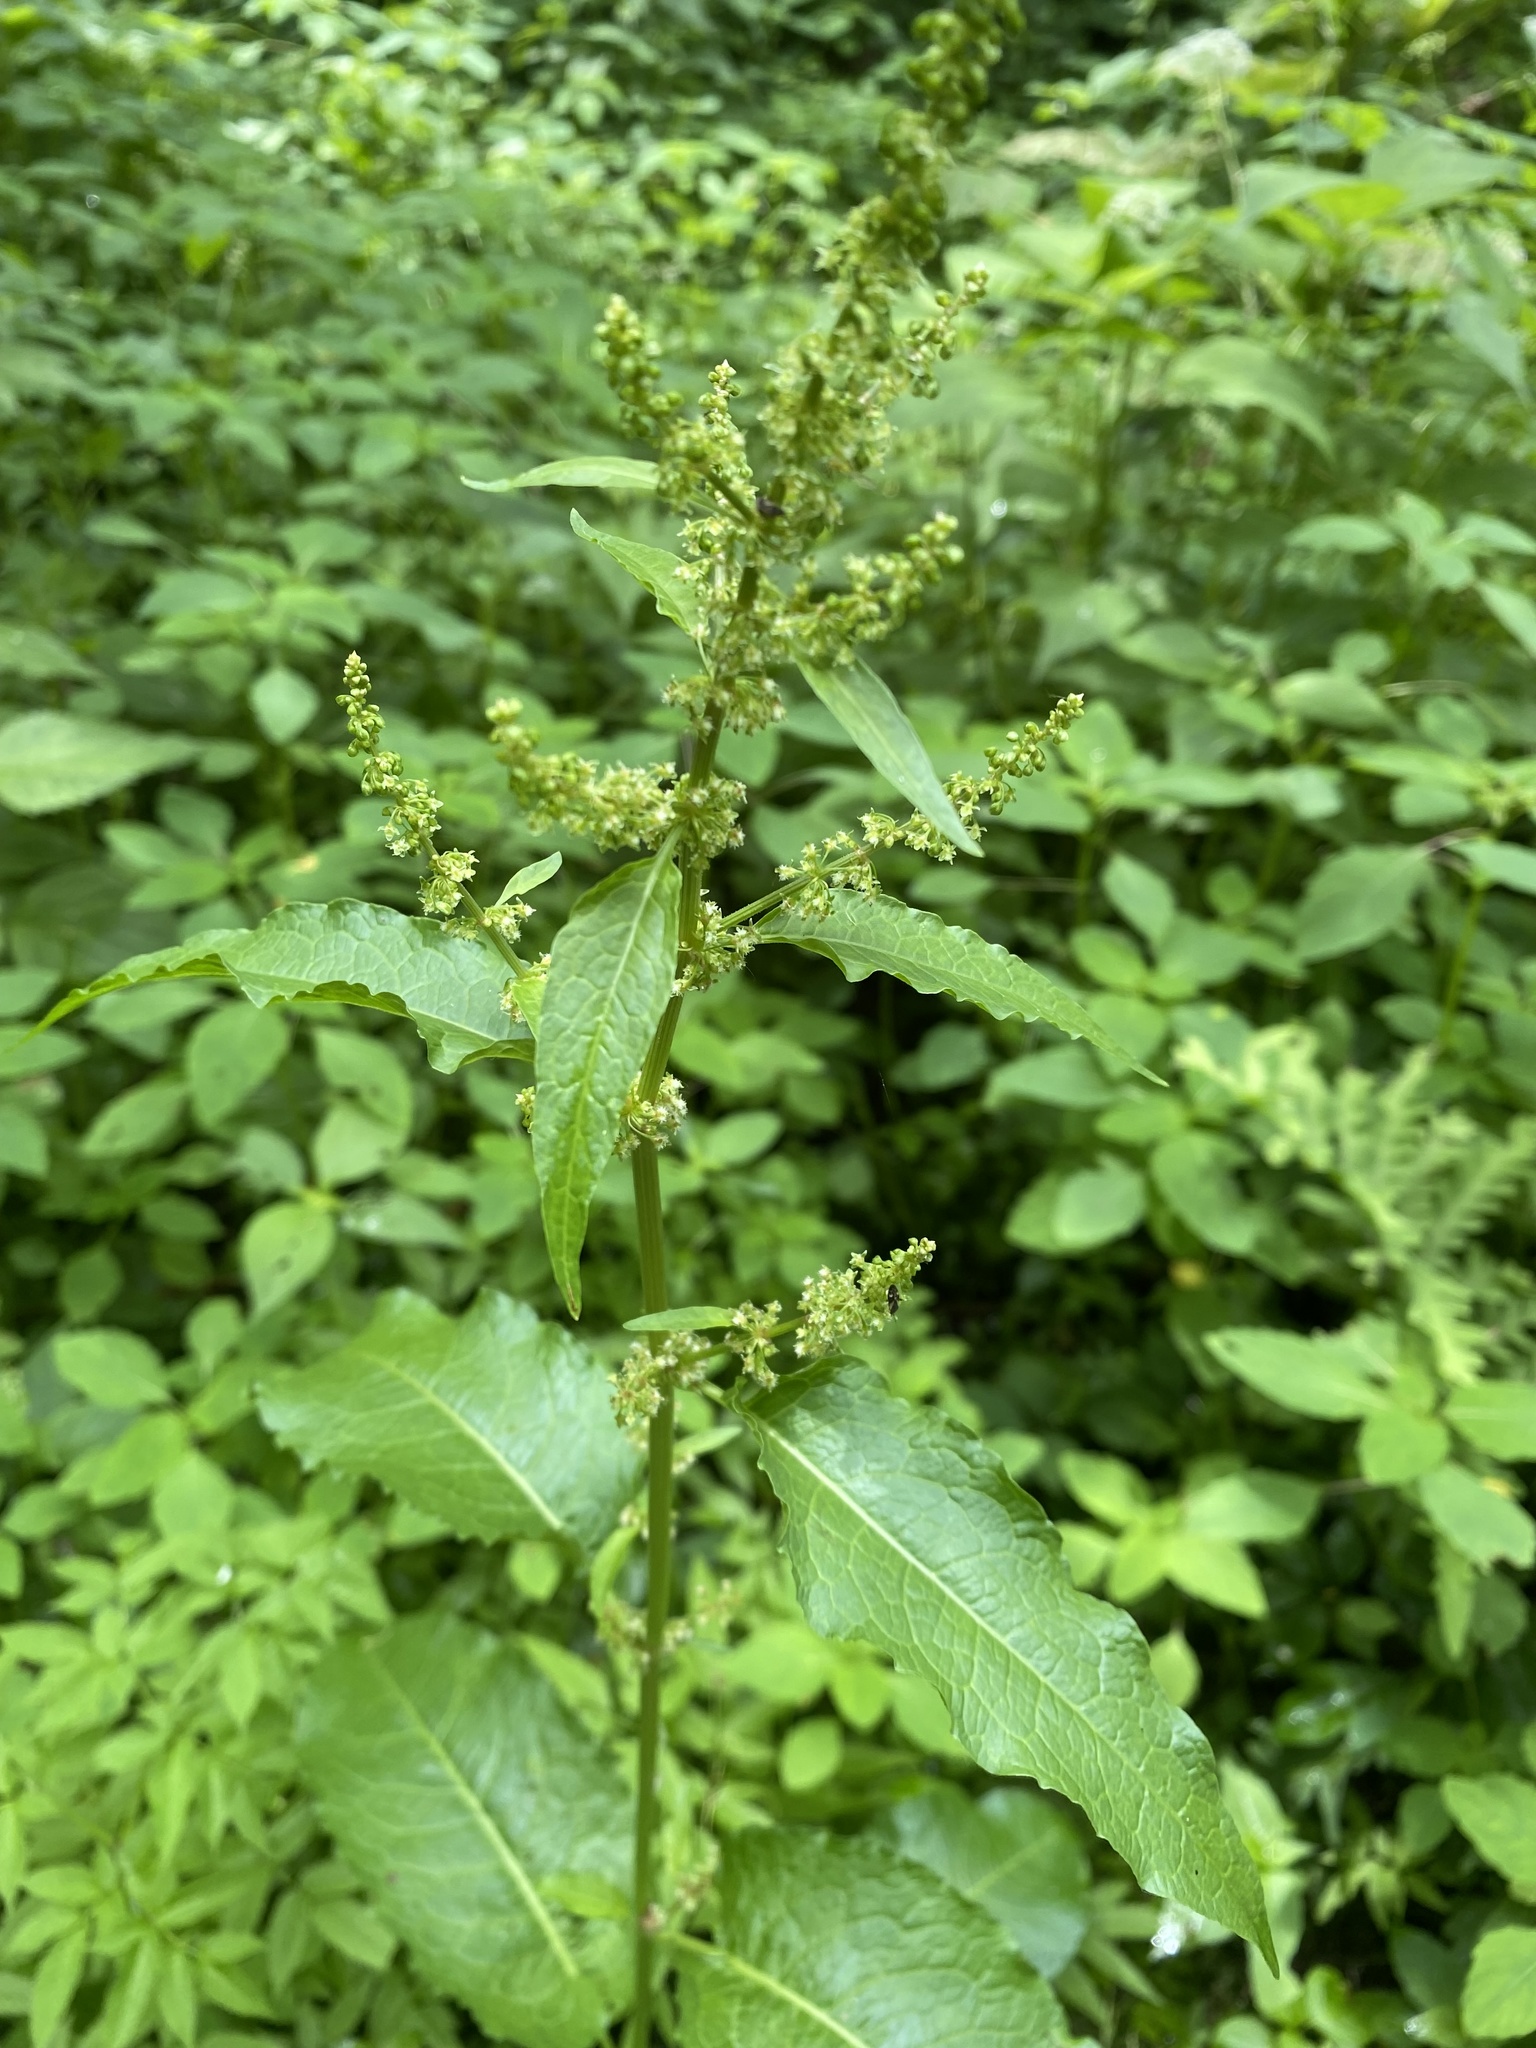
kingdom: Plantae
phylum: Tracheophyta
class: Magnoliopsida
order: Caryophyllales
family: Polygonaceae
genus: Rumex
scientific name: Rumex obtusifolius
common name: Bitter dock
